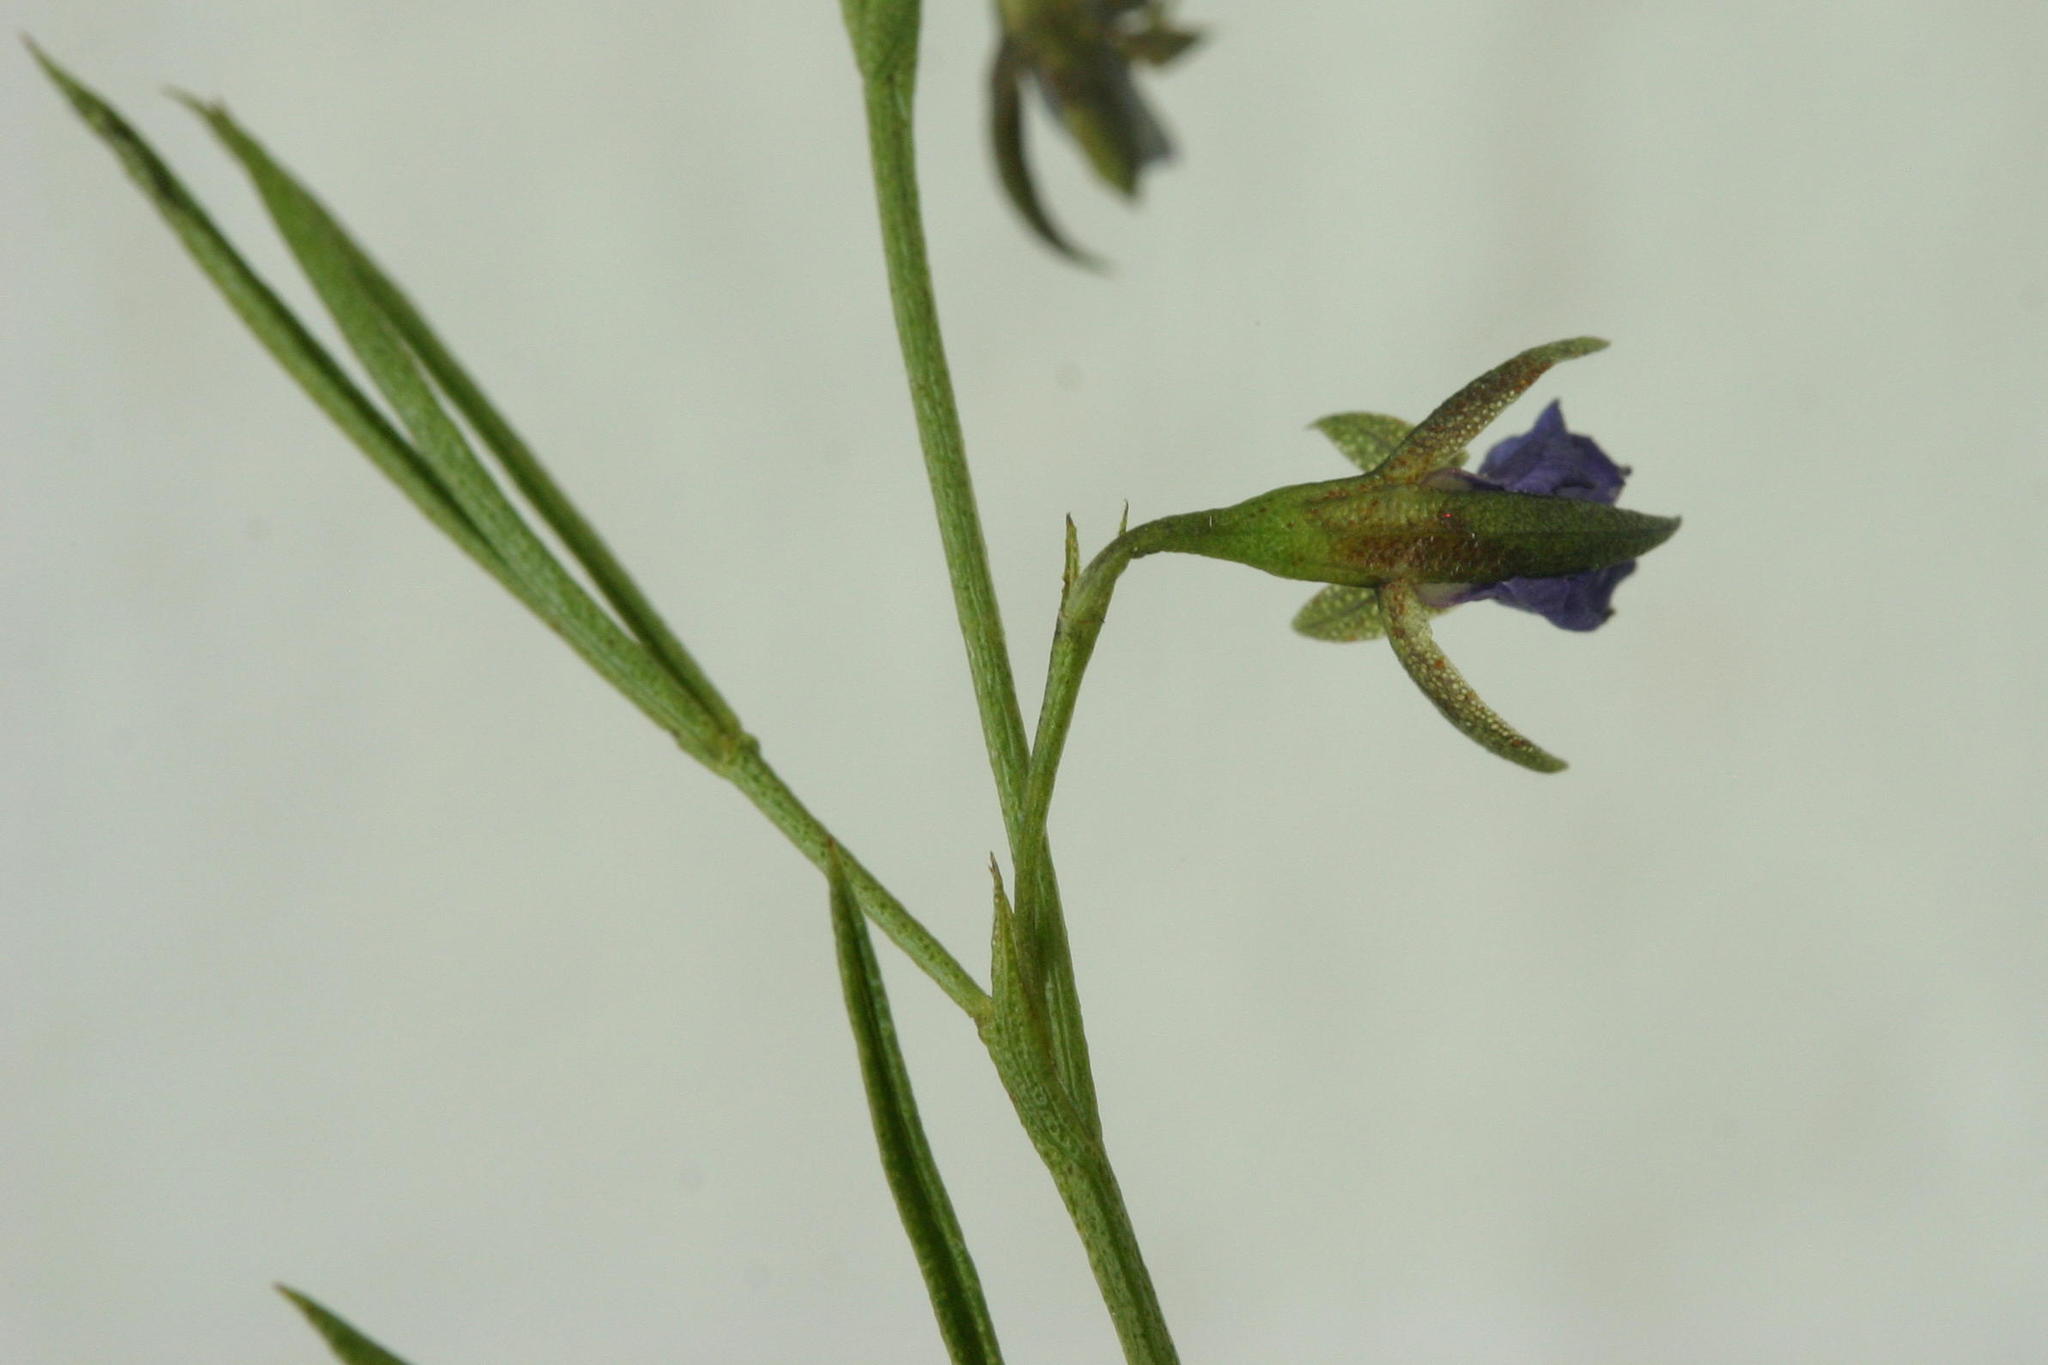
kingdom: Plantae
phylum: Tracheophyta
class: Magnoliopsida
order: Fabales
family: Fabaceae
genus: Psoralea
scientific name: Psoralea trullata
